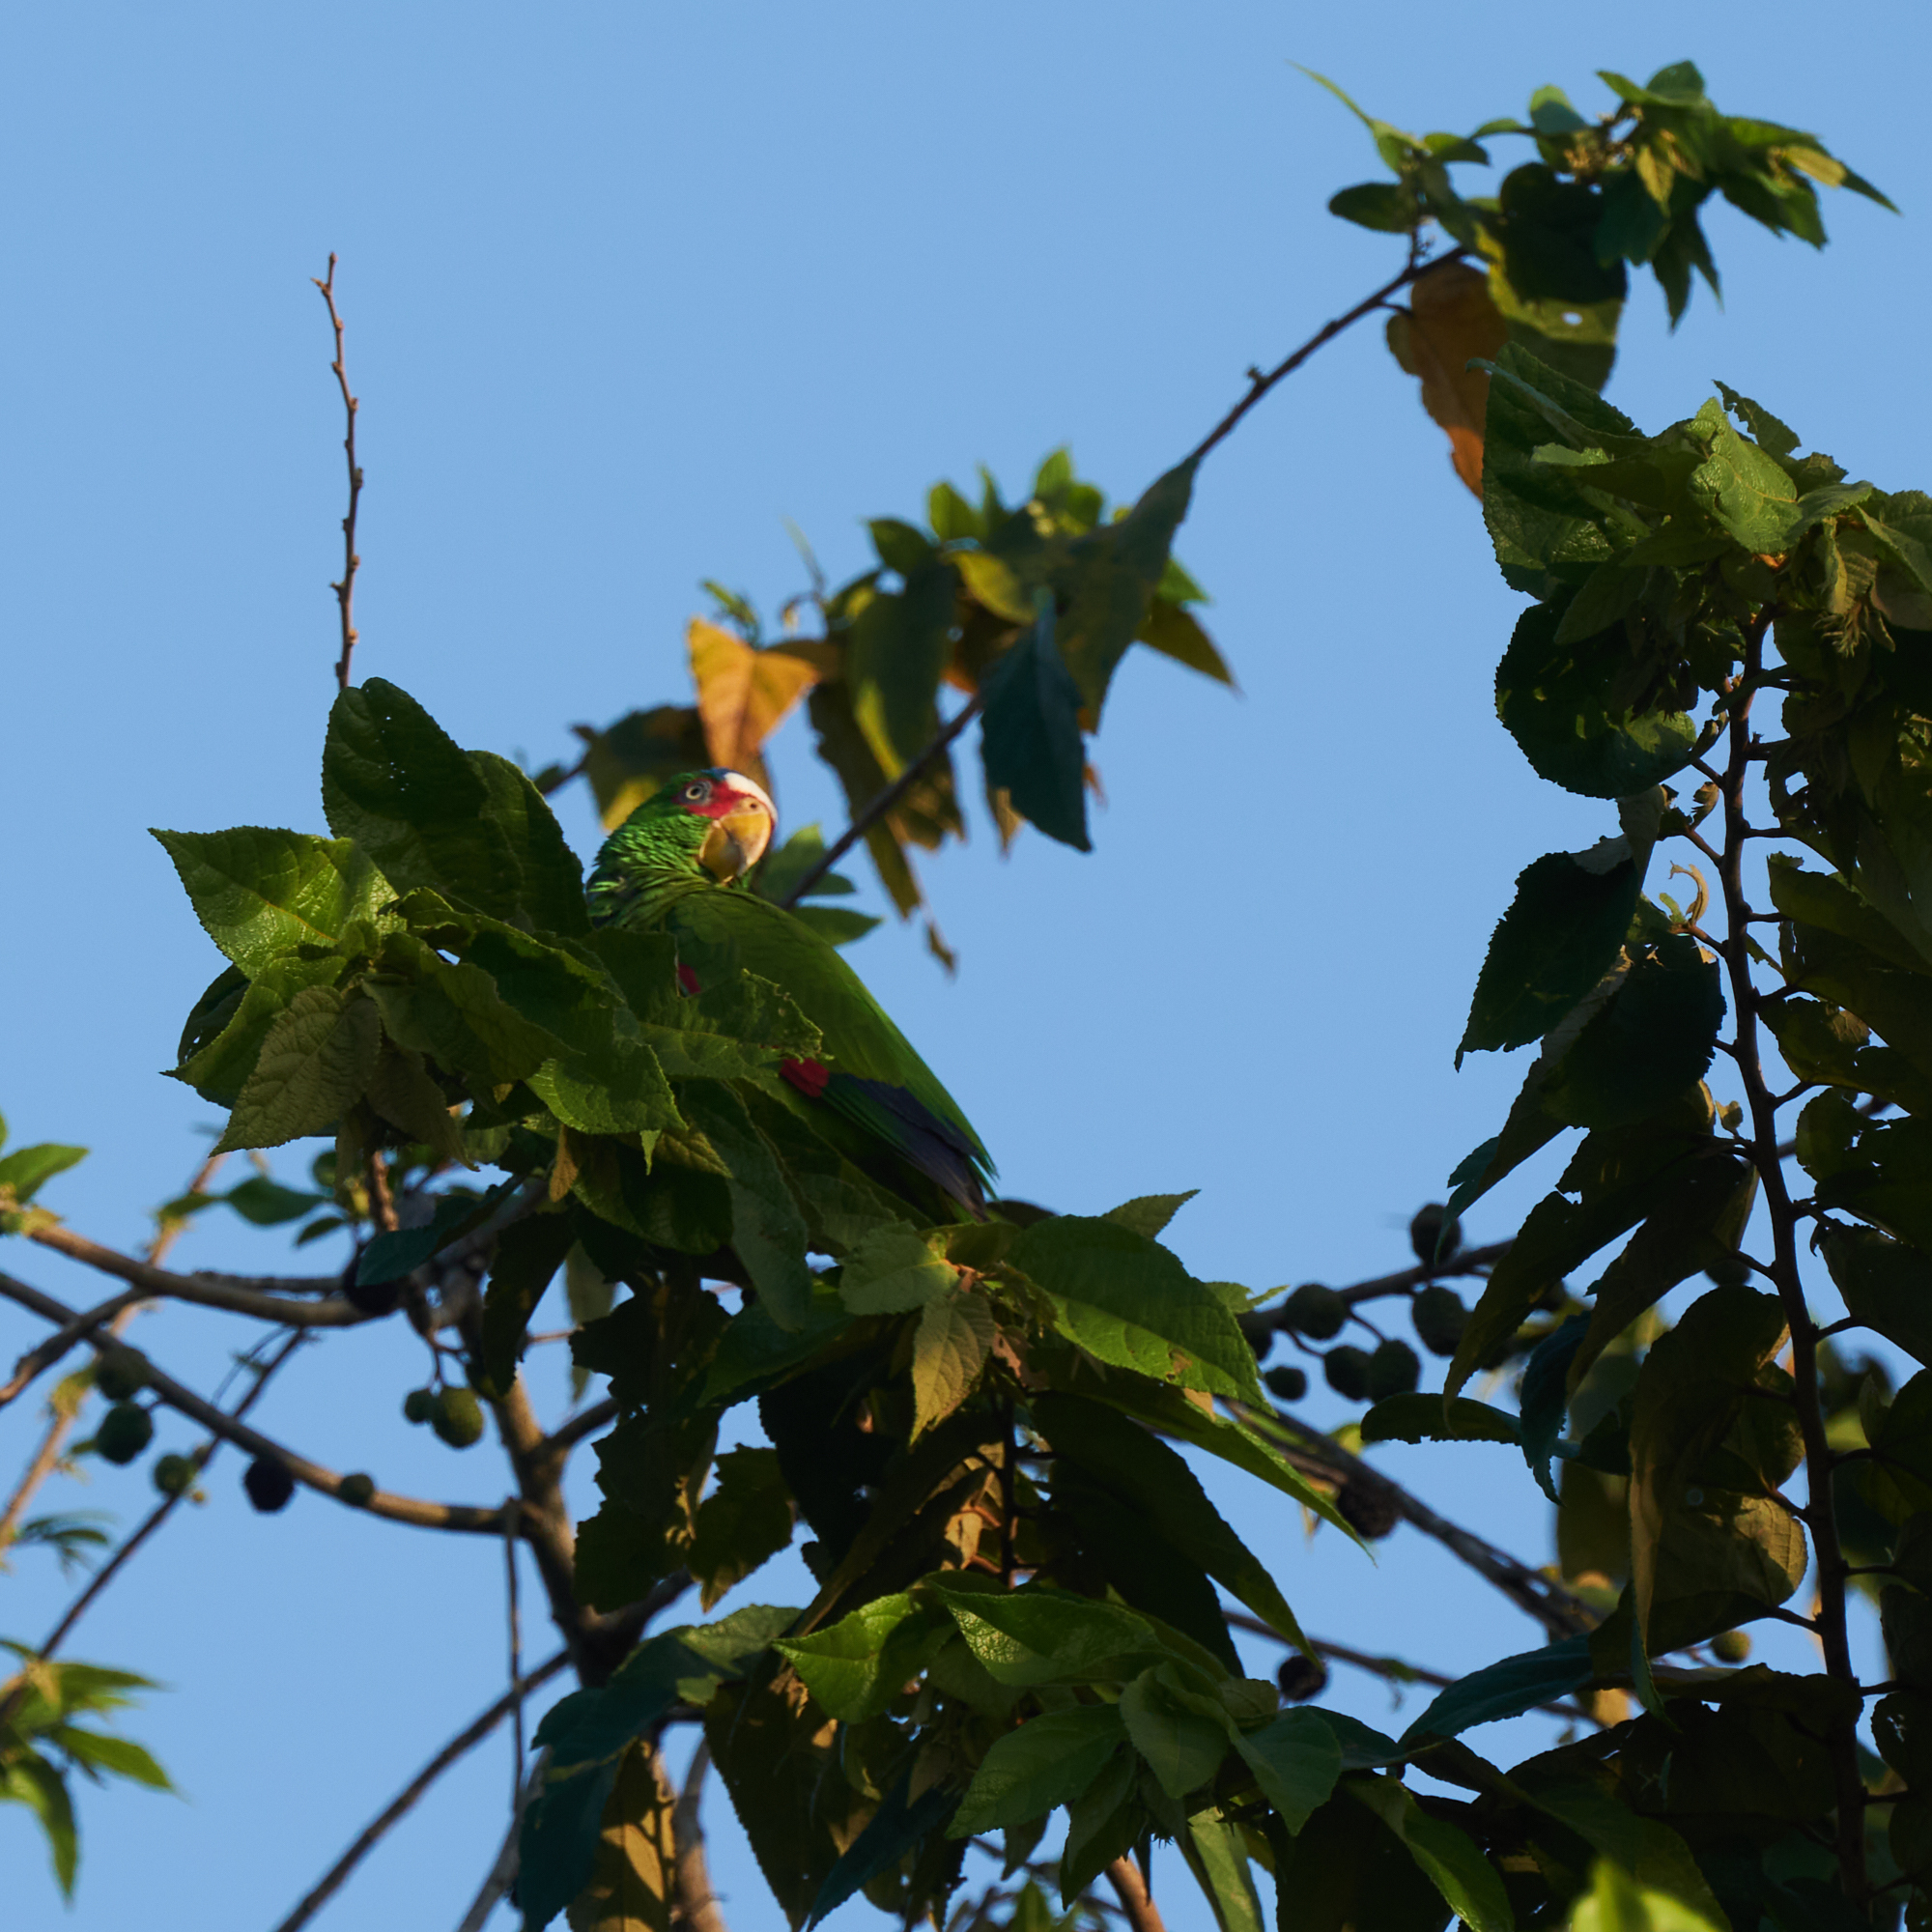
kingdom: Animalia
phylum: Chordata
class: Aves
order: Psittaciformes
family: Psittacidae
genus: Amazona
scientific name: Amazona albifrons
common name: White-fronted amazon
